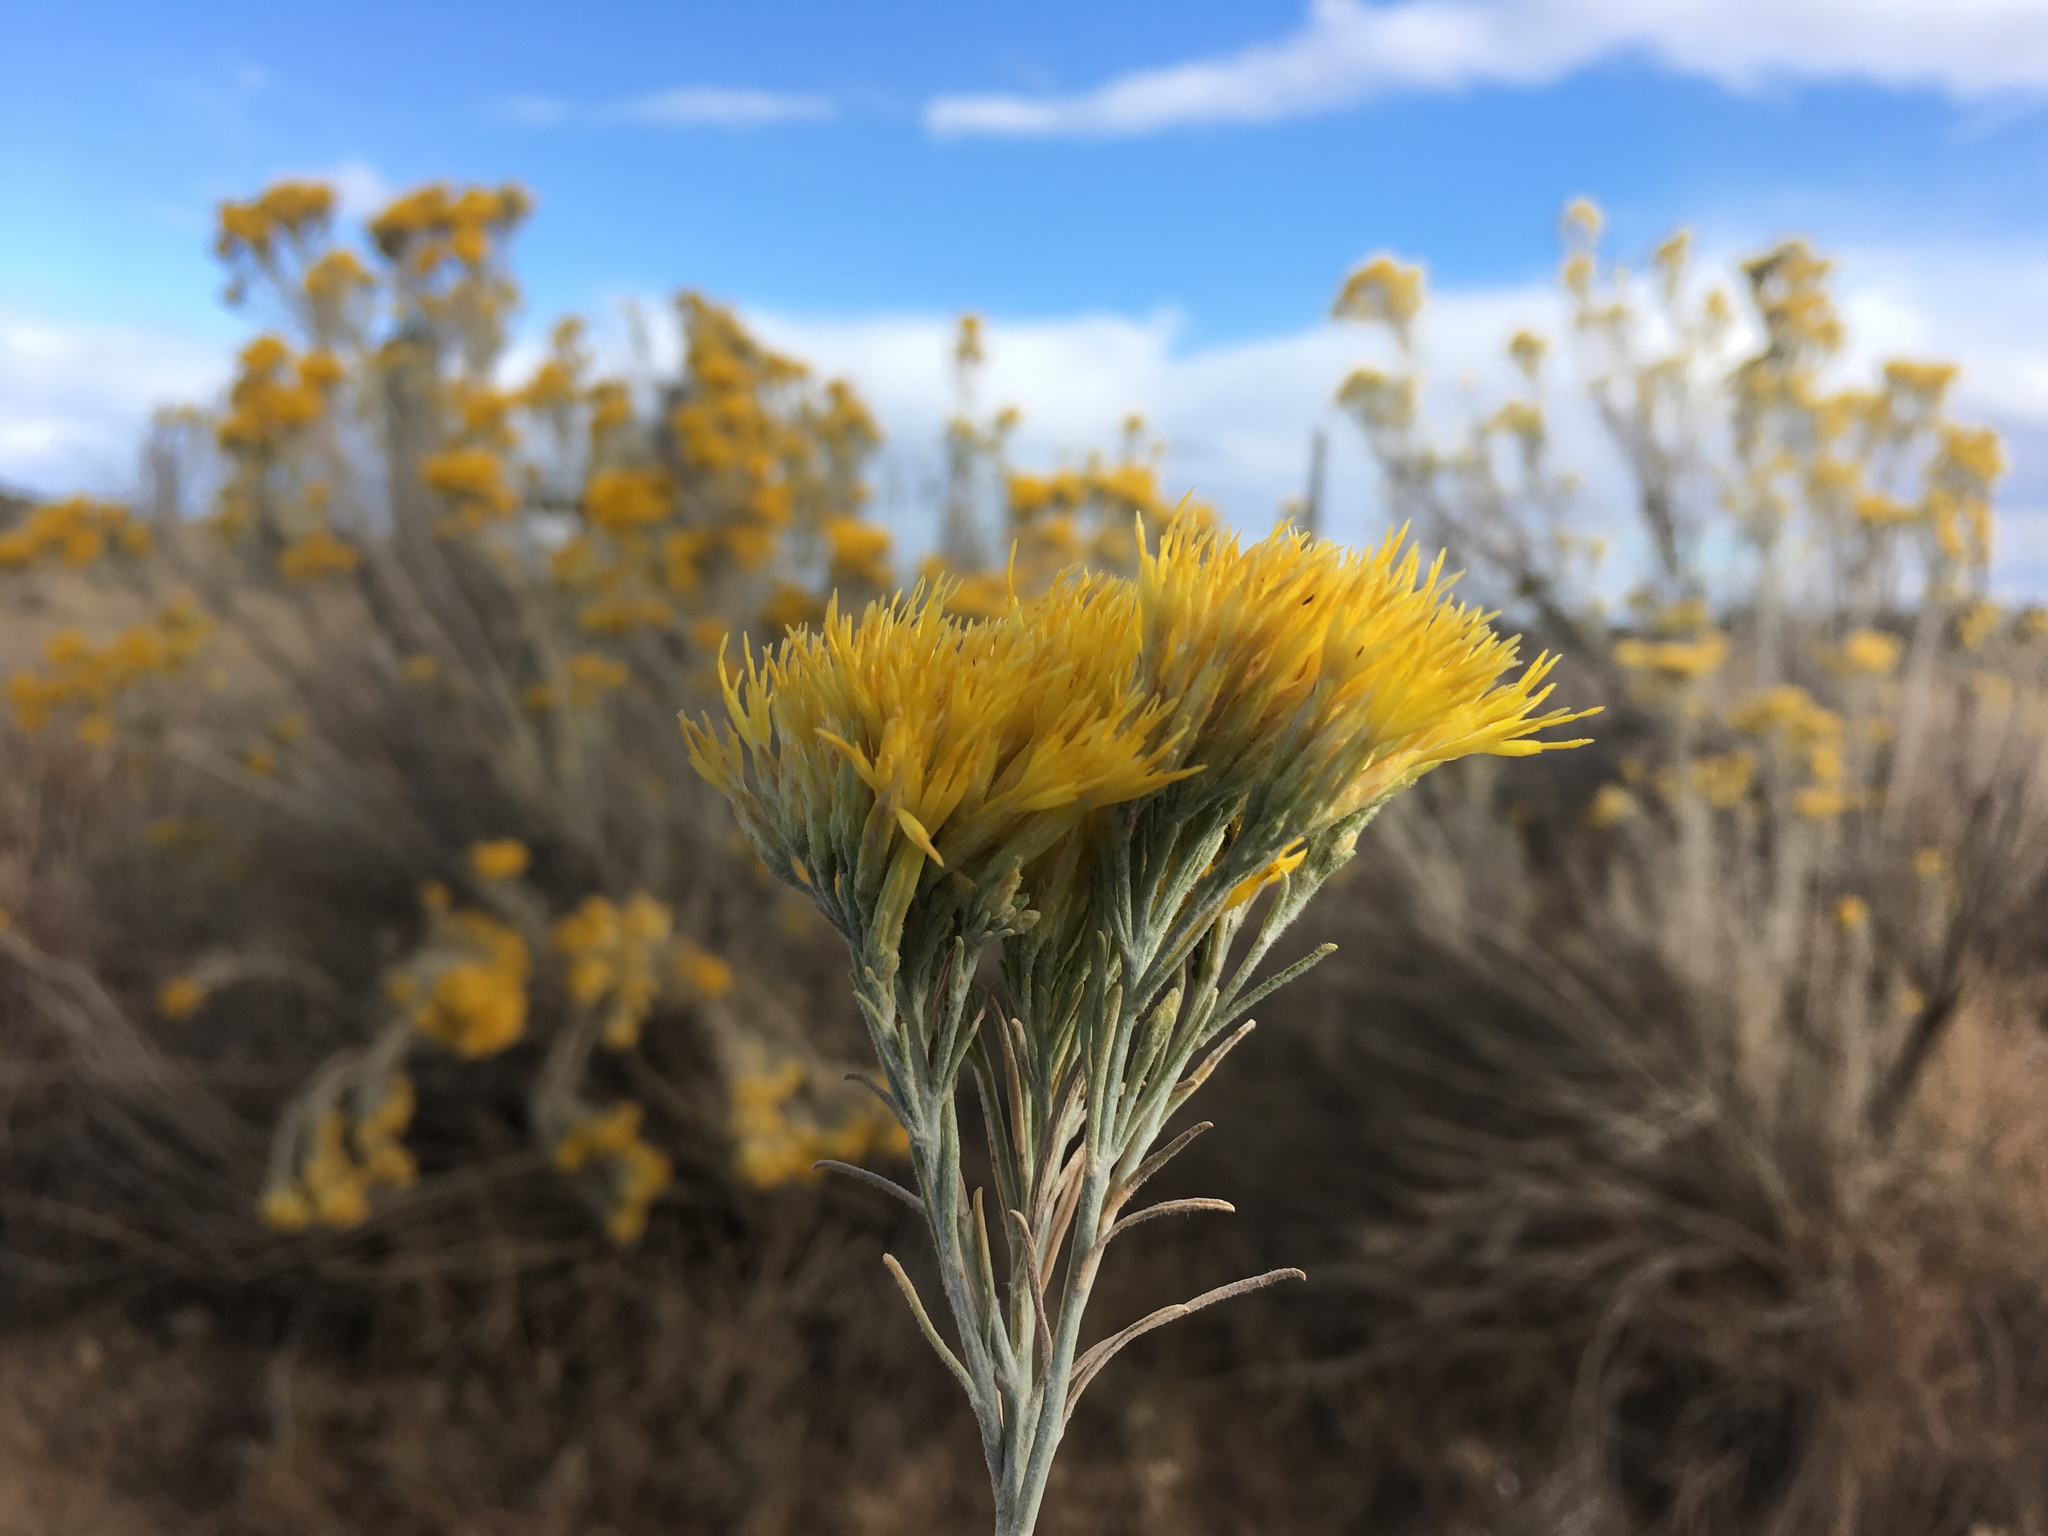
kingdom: Plantae
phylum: Tracheophyta
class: Magnoliopsida
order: Asterales
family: Asteraceae
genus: Ericameria
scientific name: Ericameria nauseosa
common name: Rubber rabbitbrush
